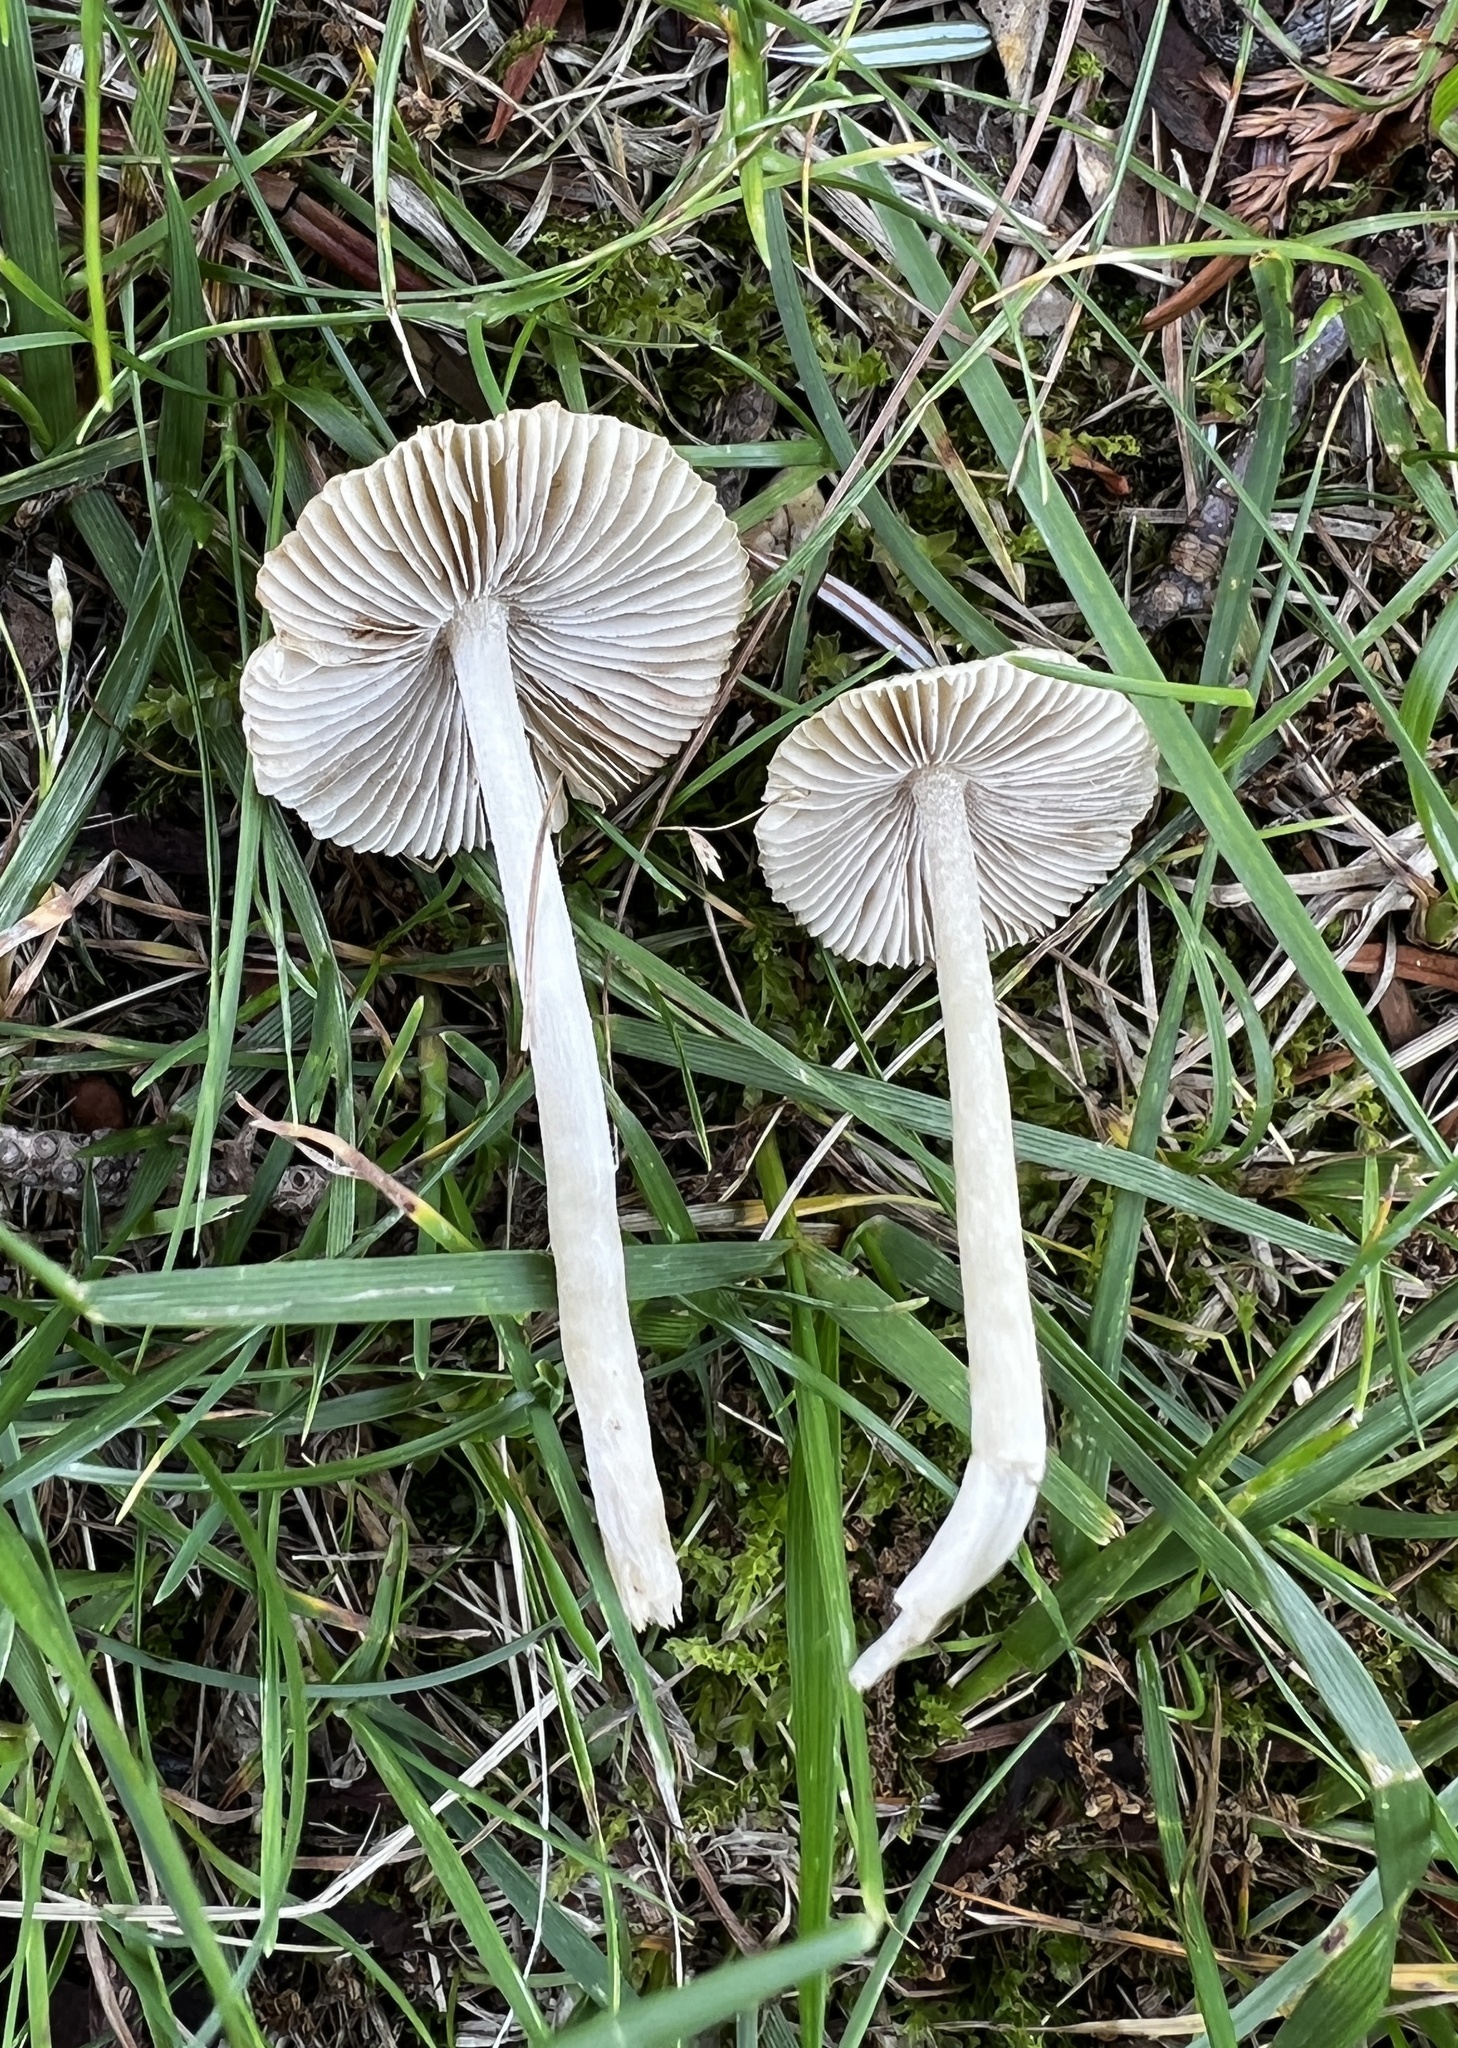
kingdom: Fungi
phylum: Basidiomycota
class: Agaricomycetes
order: Agaricales
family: Inocybaceae
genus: Pseudosperma
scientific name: Pseudosperma friabile
